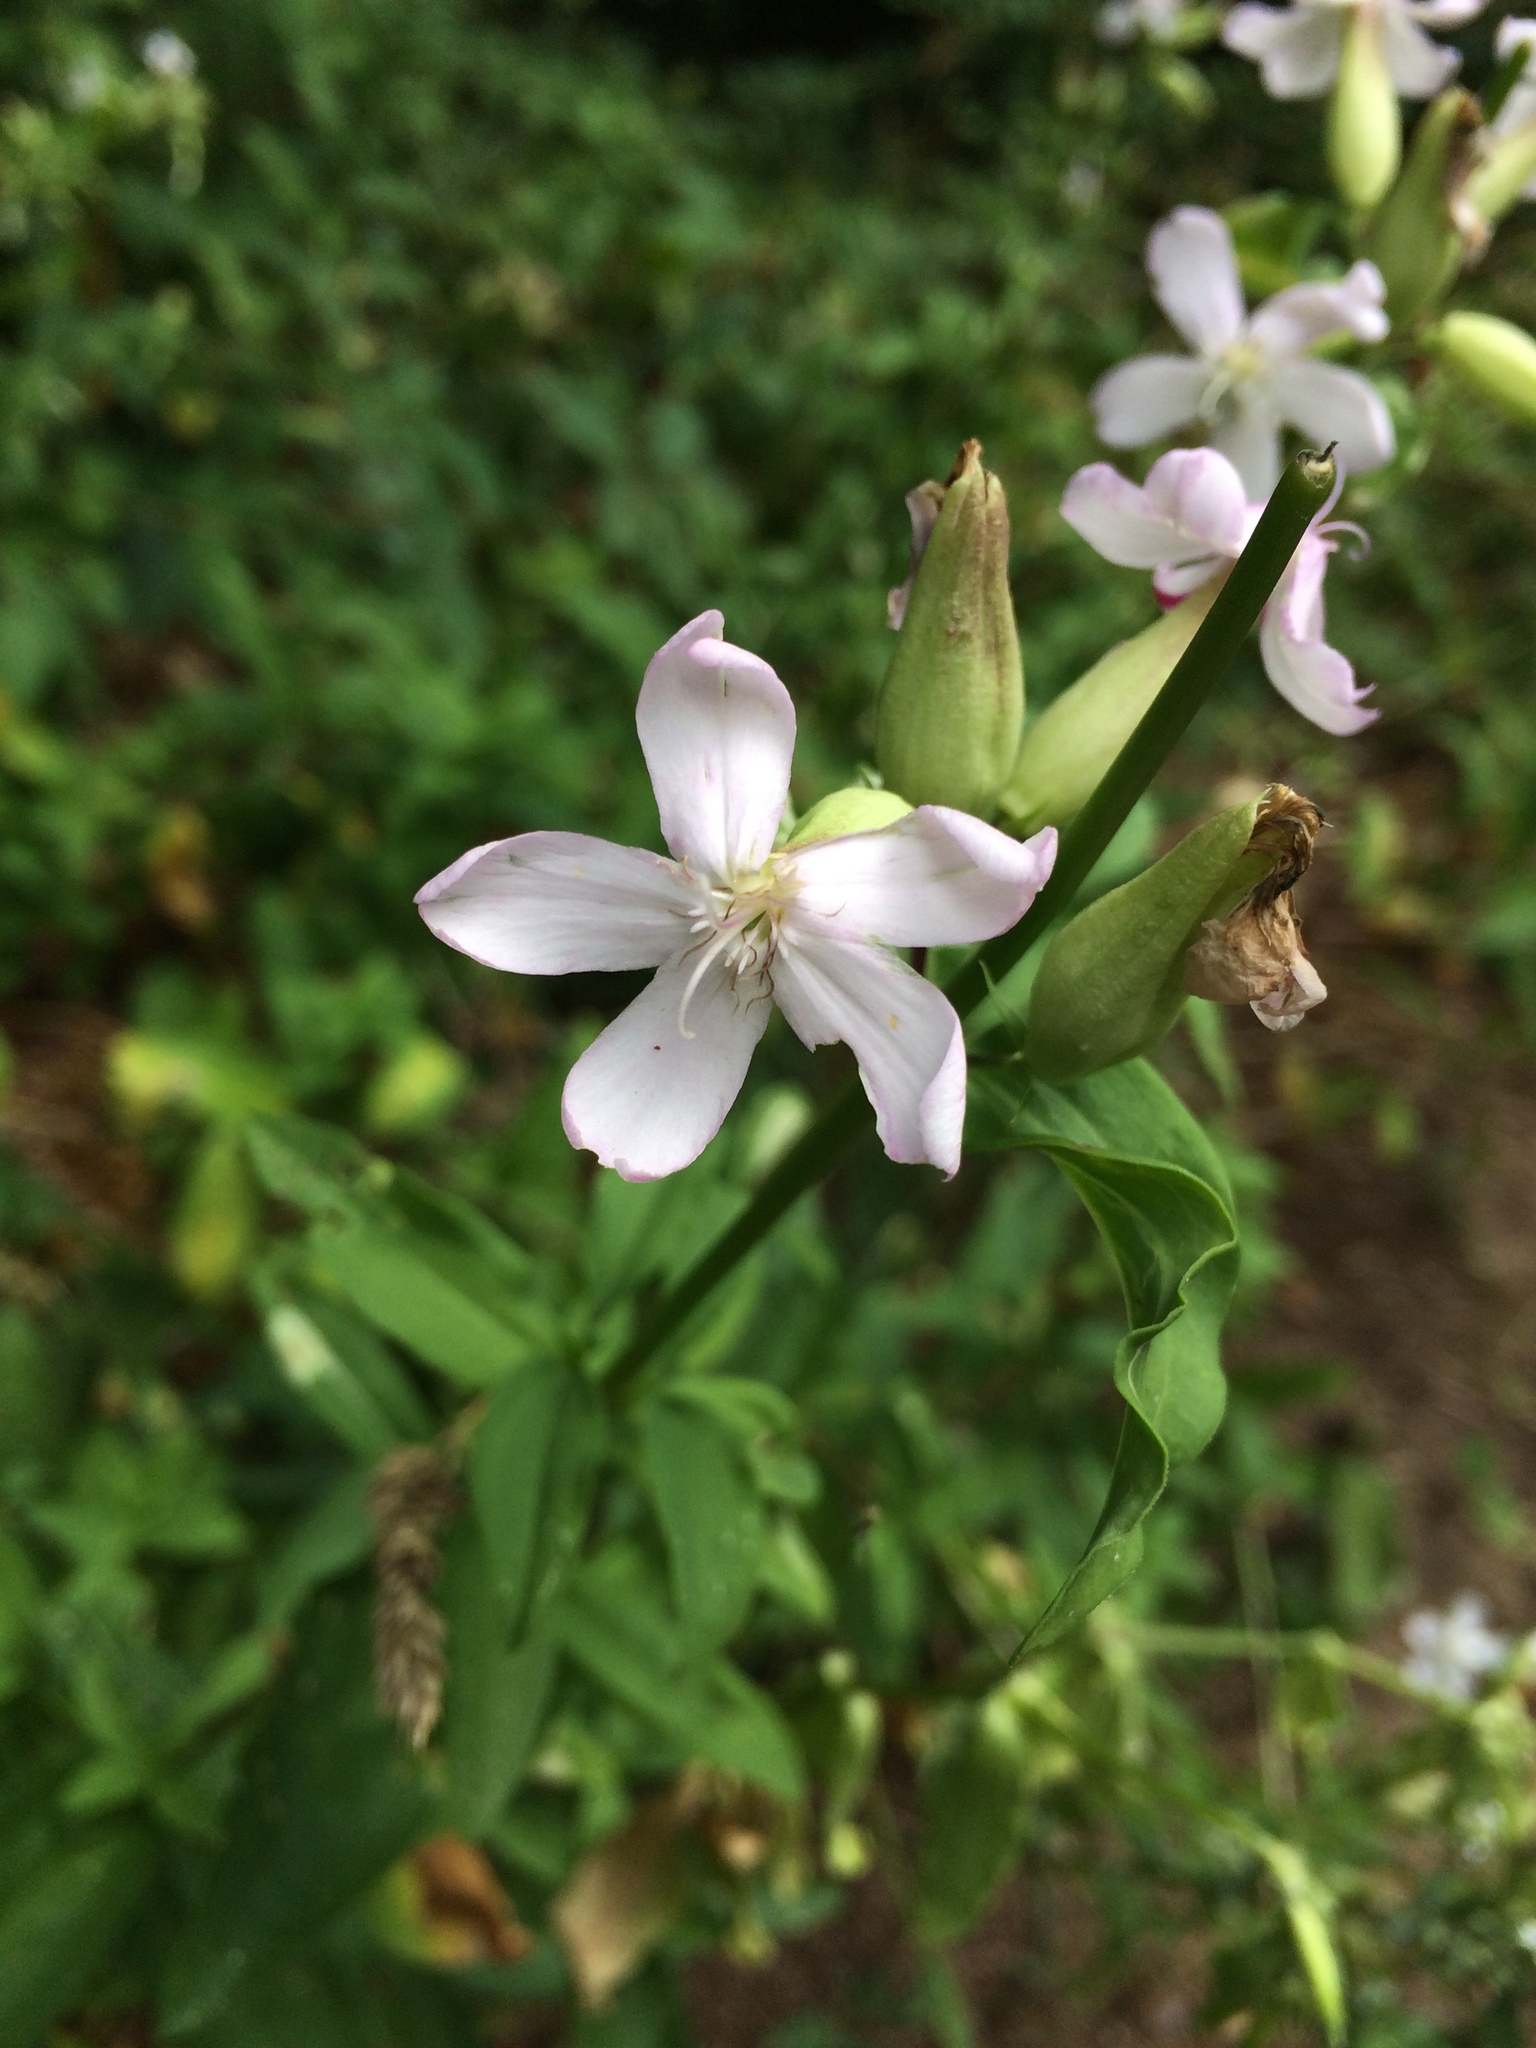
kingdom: Plantae
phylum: Tracheophyta
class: Magnoliopsida
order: Caryophyllales
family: Caryophyllaceae
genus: Saponaria
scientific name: Saponaria officinalis
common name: Soapwort
